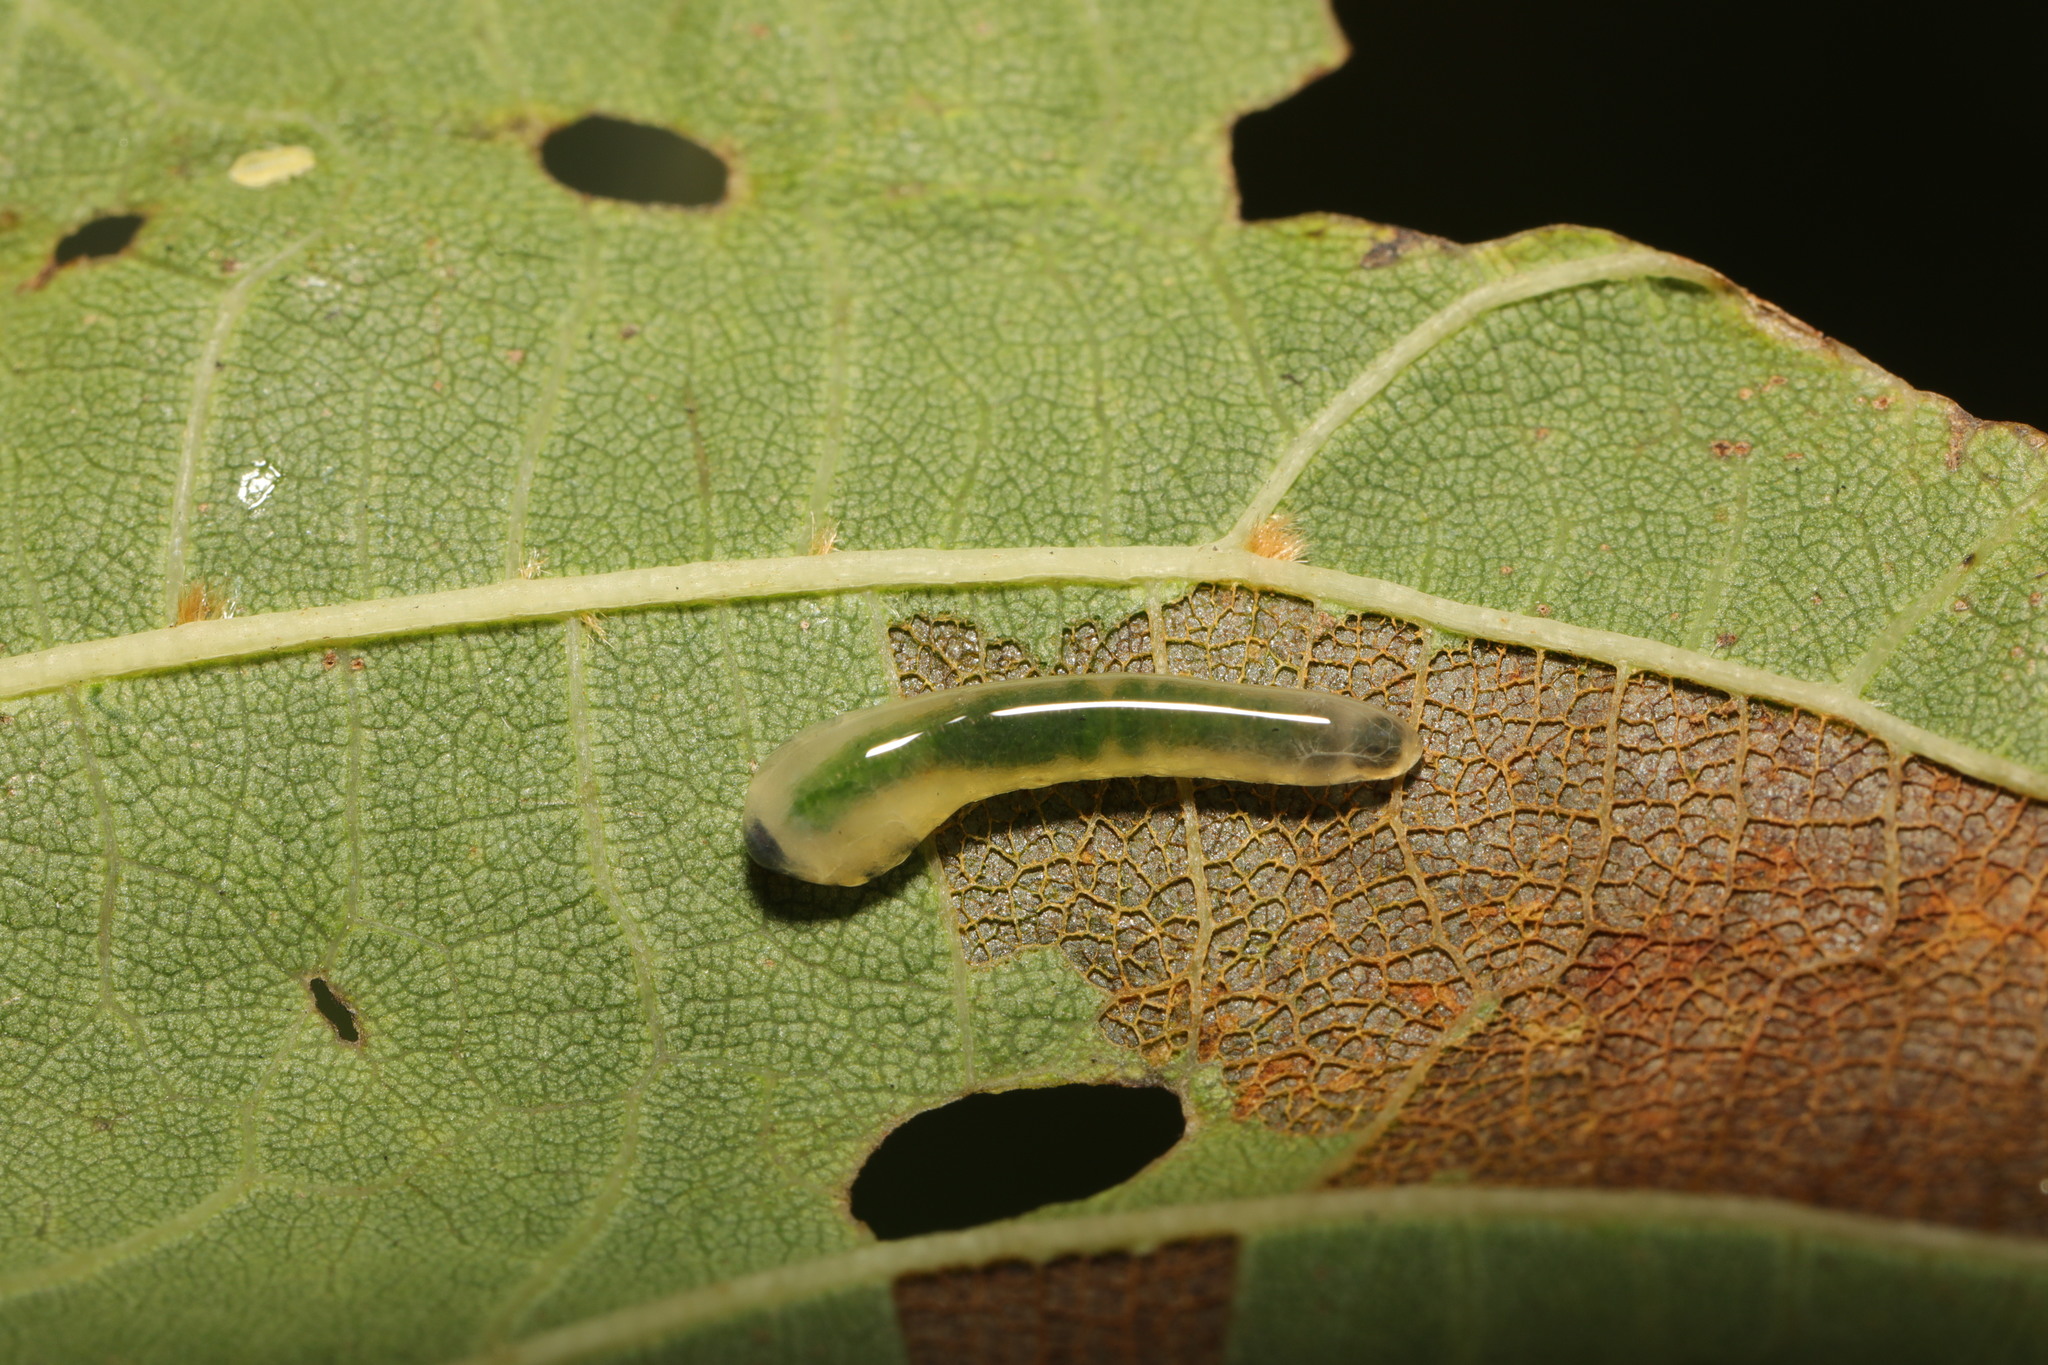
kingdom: Animalia
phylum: Arthropoda
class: Insecta
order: Hymenoptera
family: Tenthredinidae
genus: Caliroa
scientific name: Caliroa annulipes
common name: Wasp
